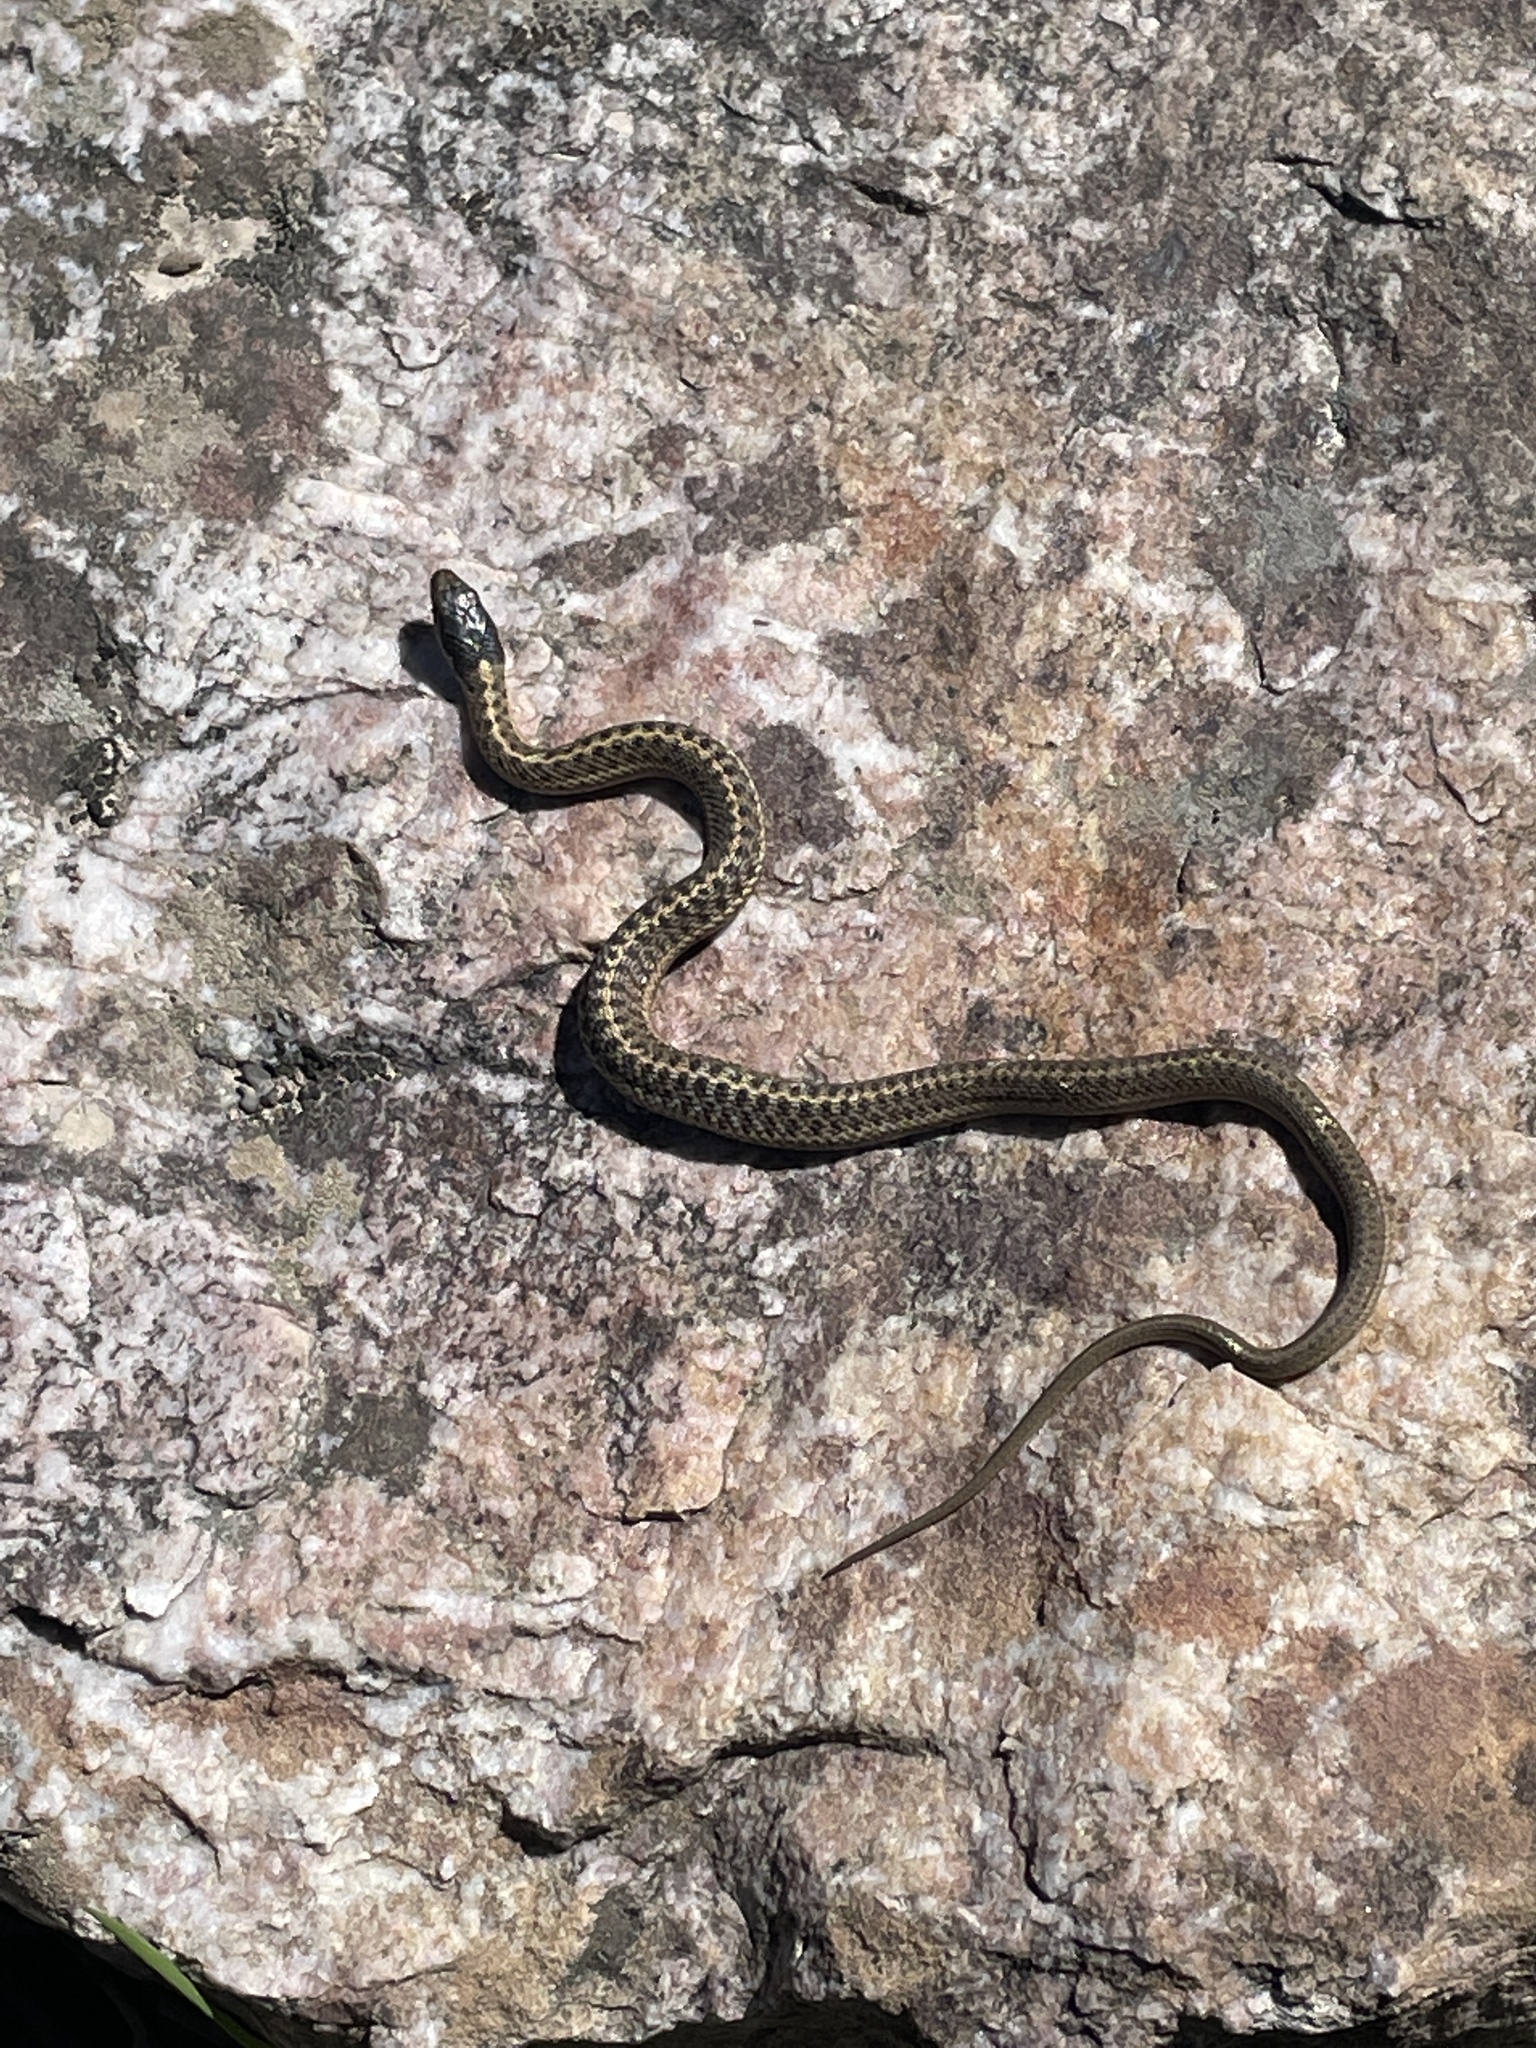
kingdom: Animalia
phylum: Chordata
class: Squamata
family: Colubridae
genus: Thamnophis
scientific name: Thamnophis elegans
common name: Western terrestrial garter snake
